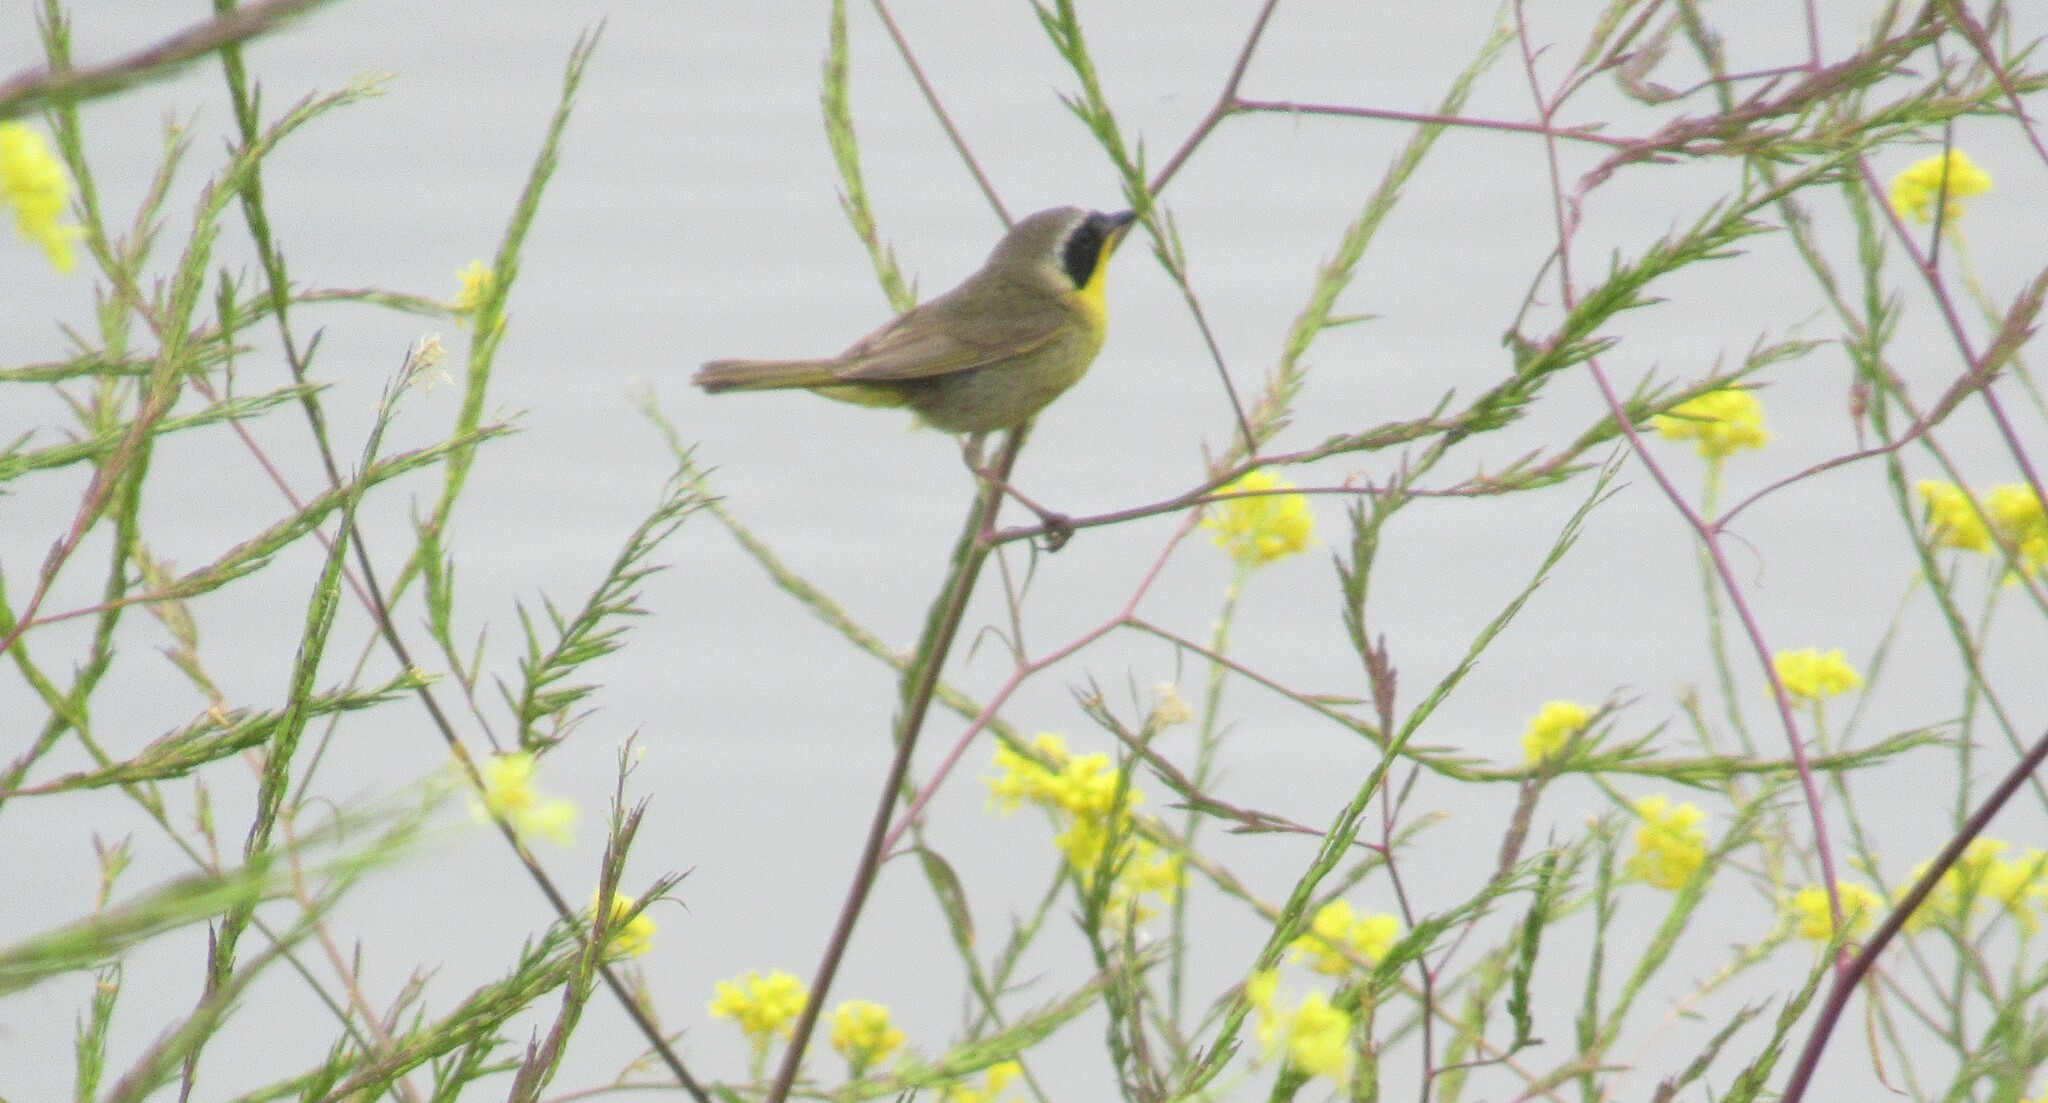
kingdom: Animalia
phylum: Chordata
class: Aves
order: Passeriformes
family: Parulidae
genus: Geothlypis
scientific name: Geothlypis trichas
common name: Common yellowthroat
